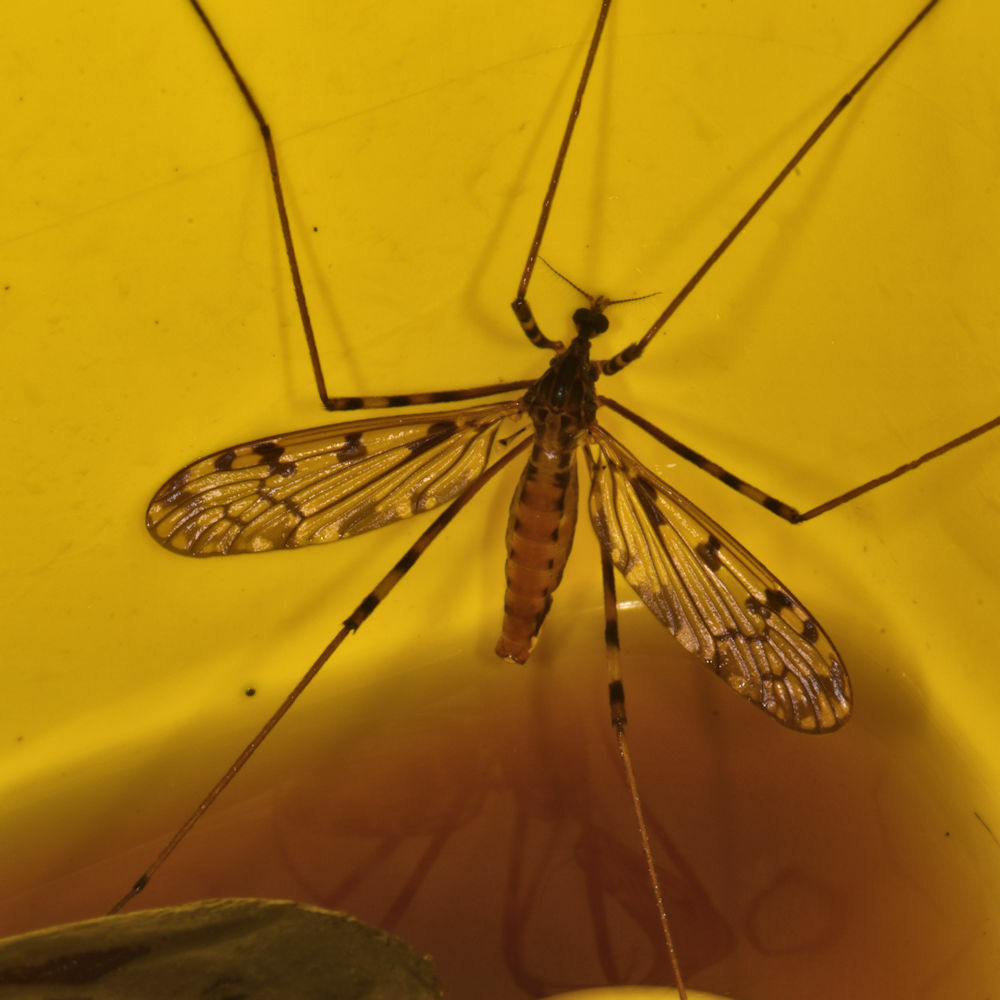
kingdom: Animalia
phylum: Arthropoda
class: Insecta
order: Diptera
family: Limoniidae
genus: Metalimnobia
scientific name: Metalimnobia immatura
